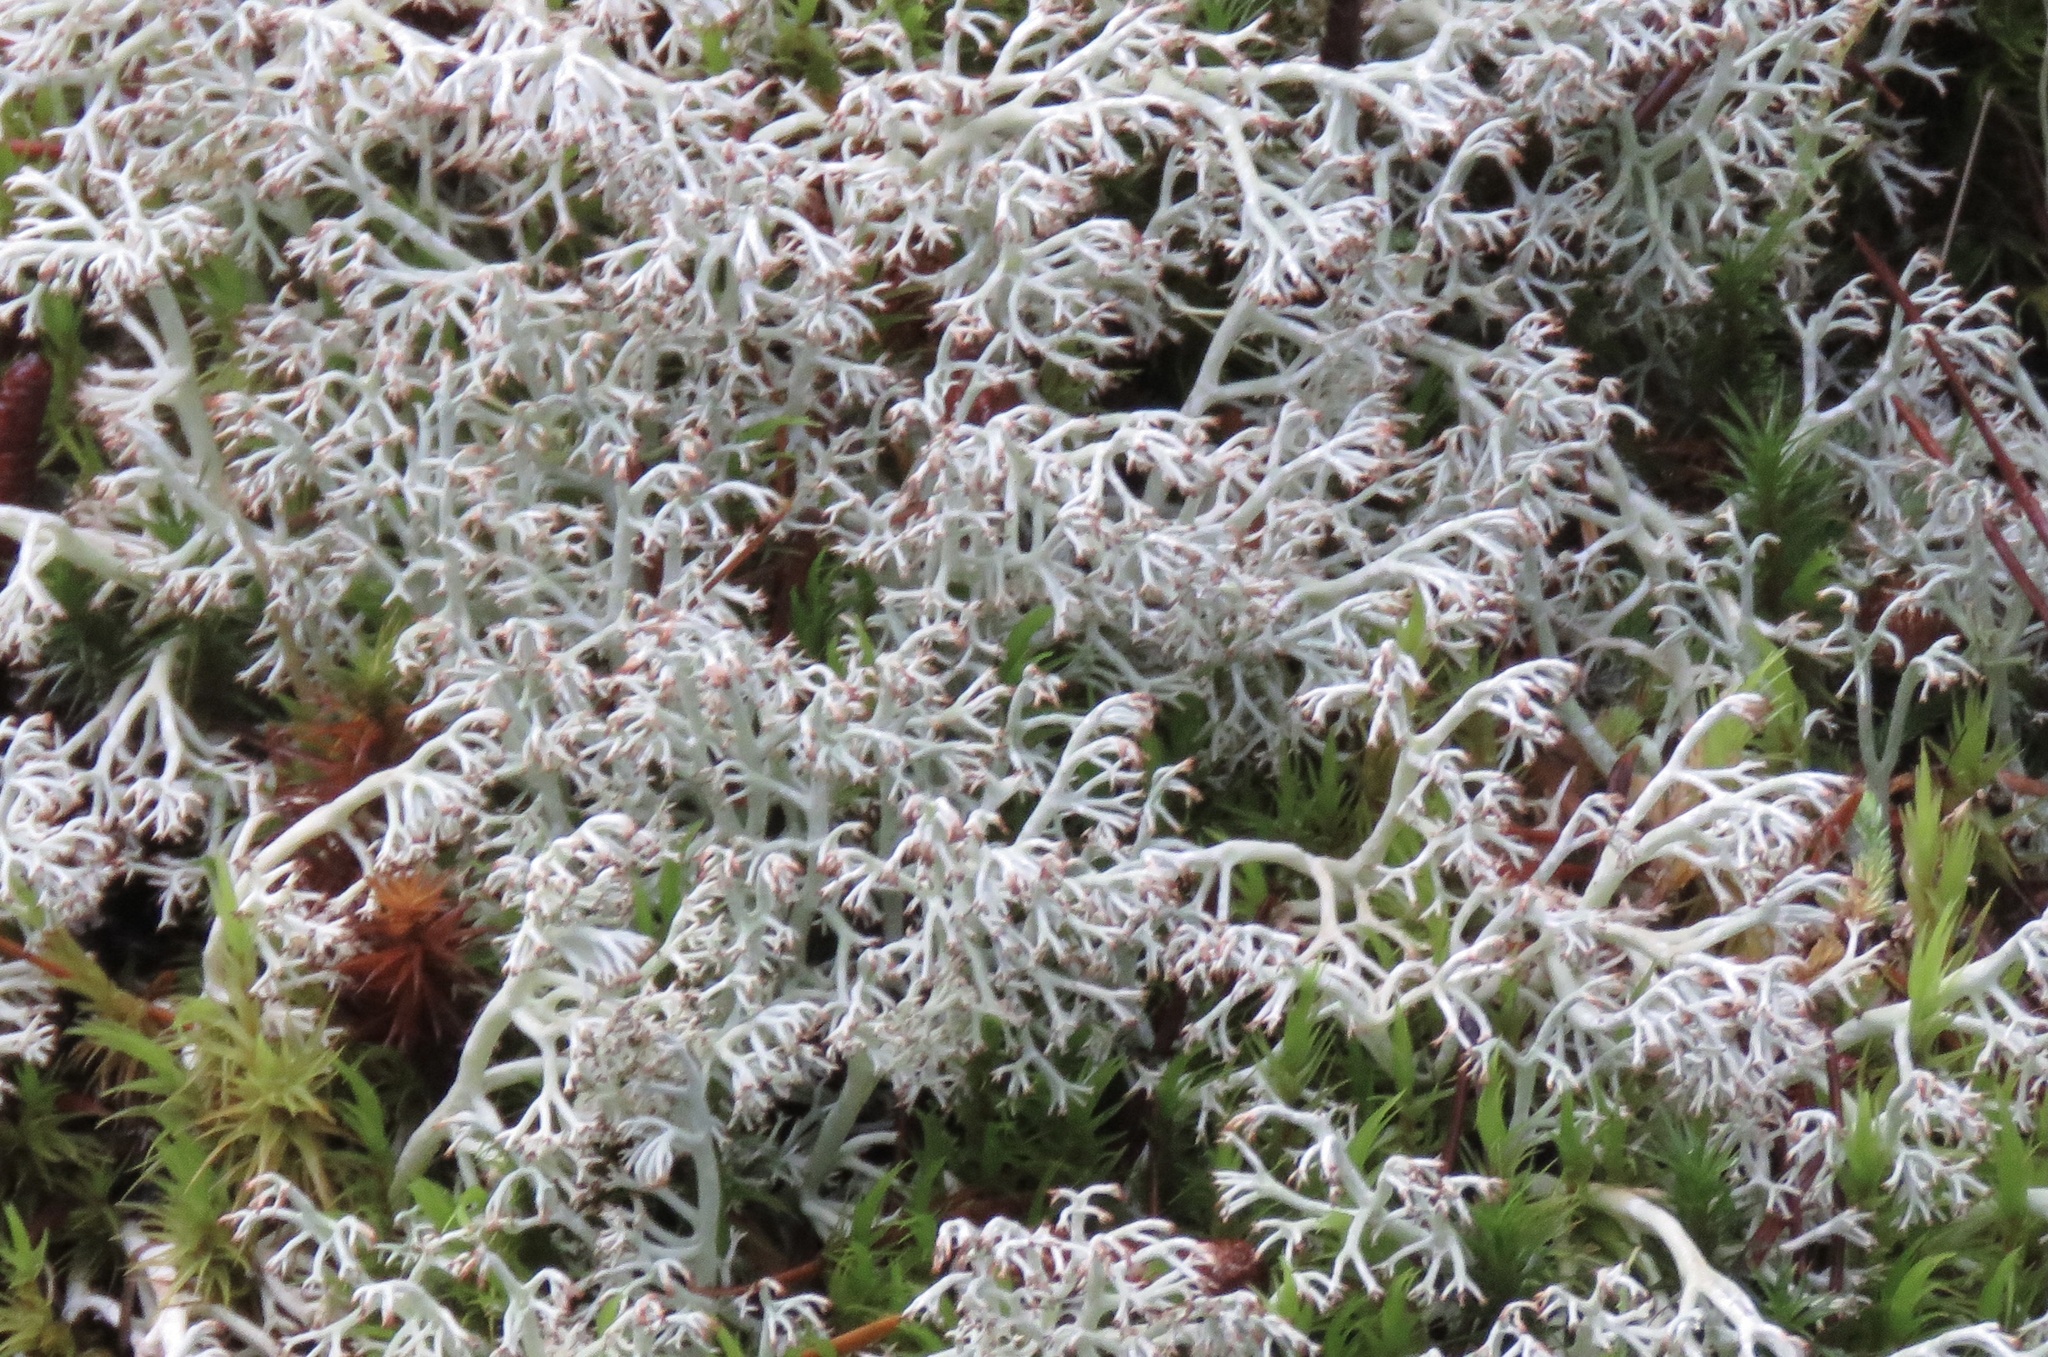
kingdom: Fungi
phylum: Ascomycota
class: Lecanoromycetes
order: Lecanorales
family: Cladoniaceae
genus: Cladonia
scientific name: Cladonia rangiferina
